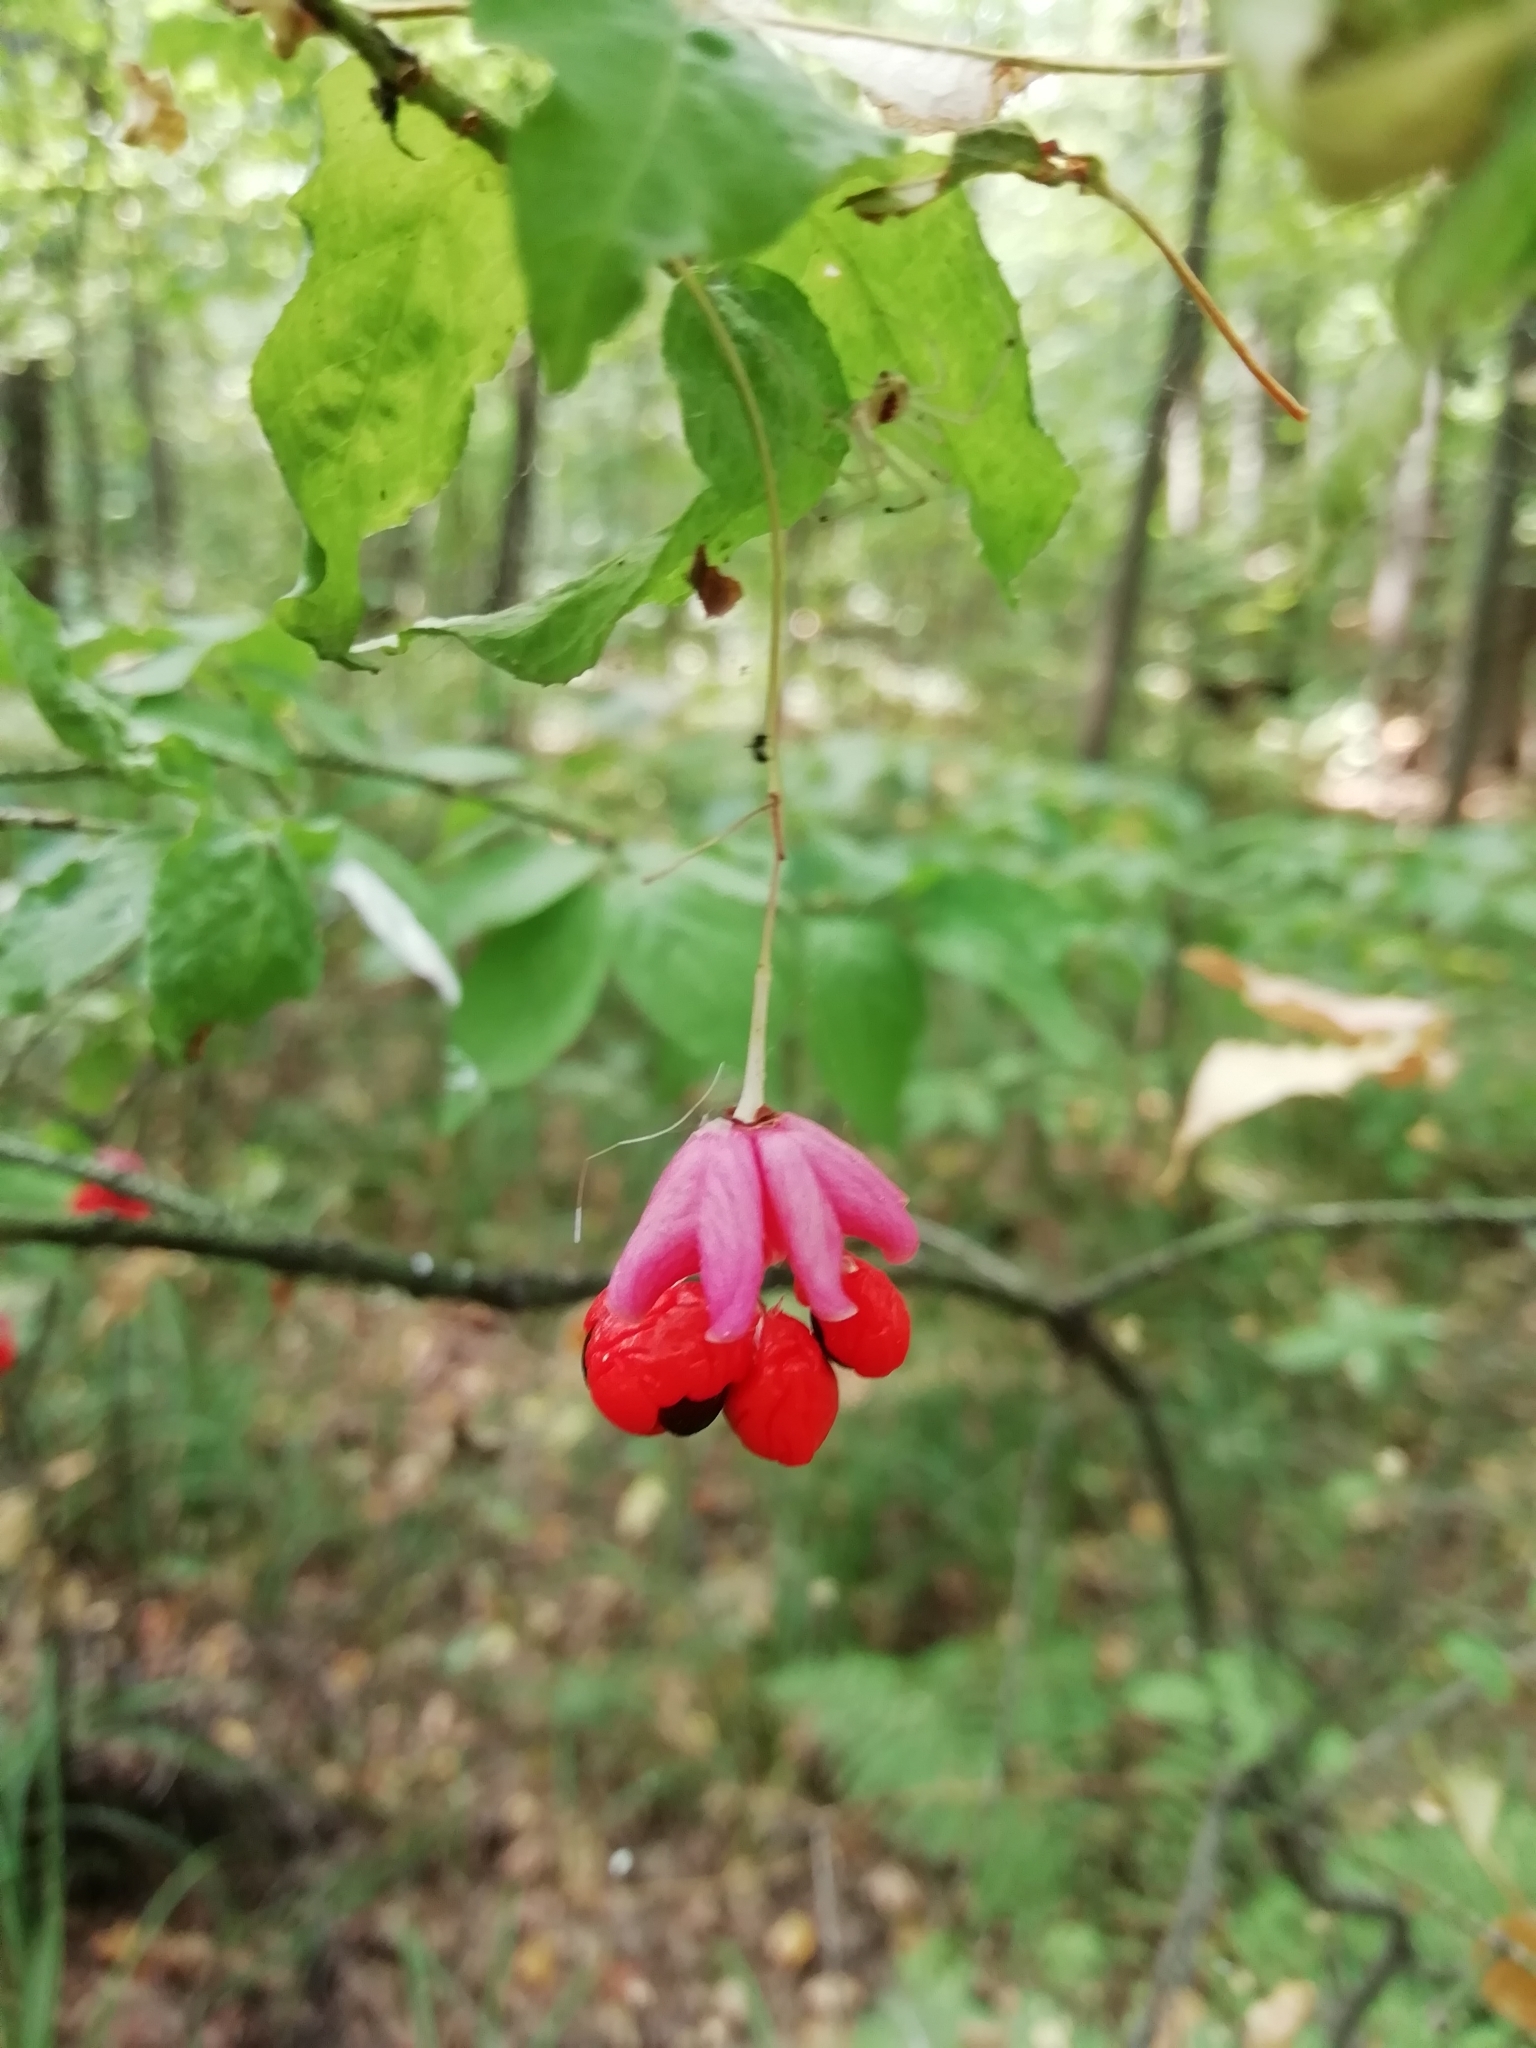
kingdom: Plantae
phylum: Tracheophyta
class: Magnoliopsida
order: Celastrales
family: Celastraceae
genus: Euonymus
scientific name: Euonymus verrucosus
